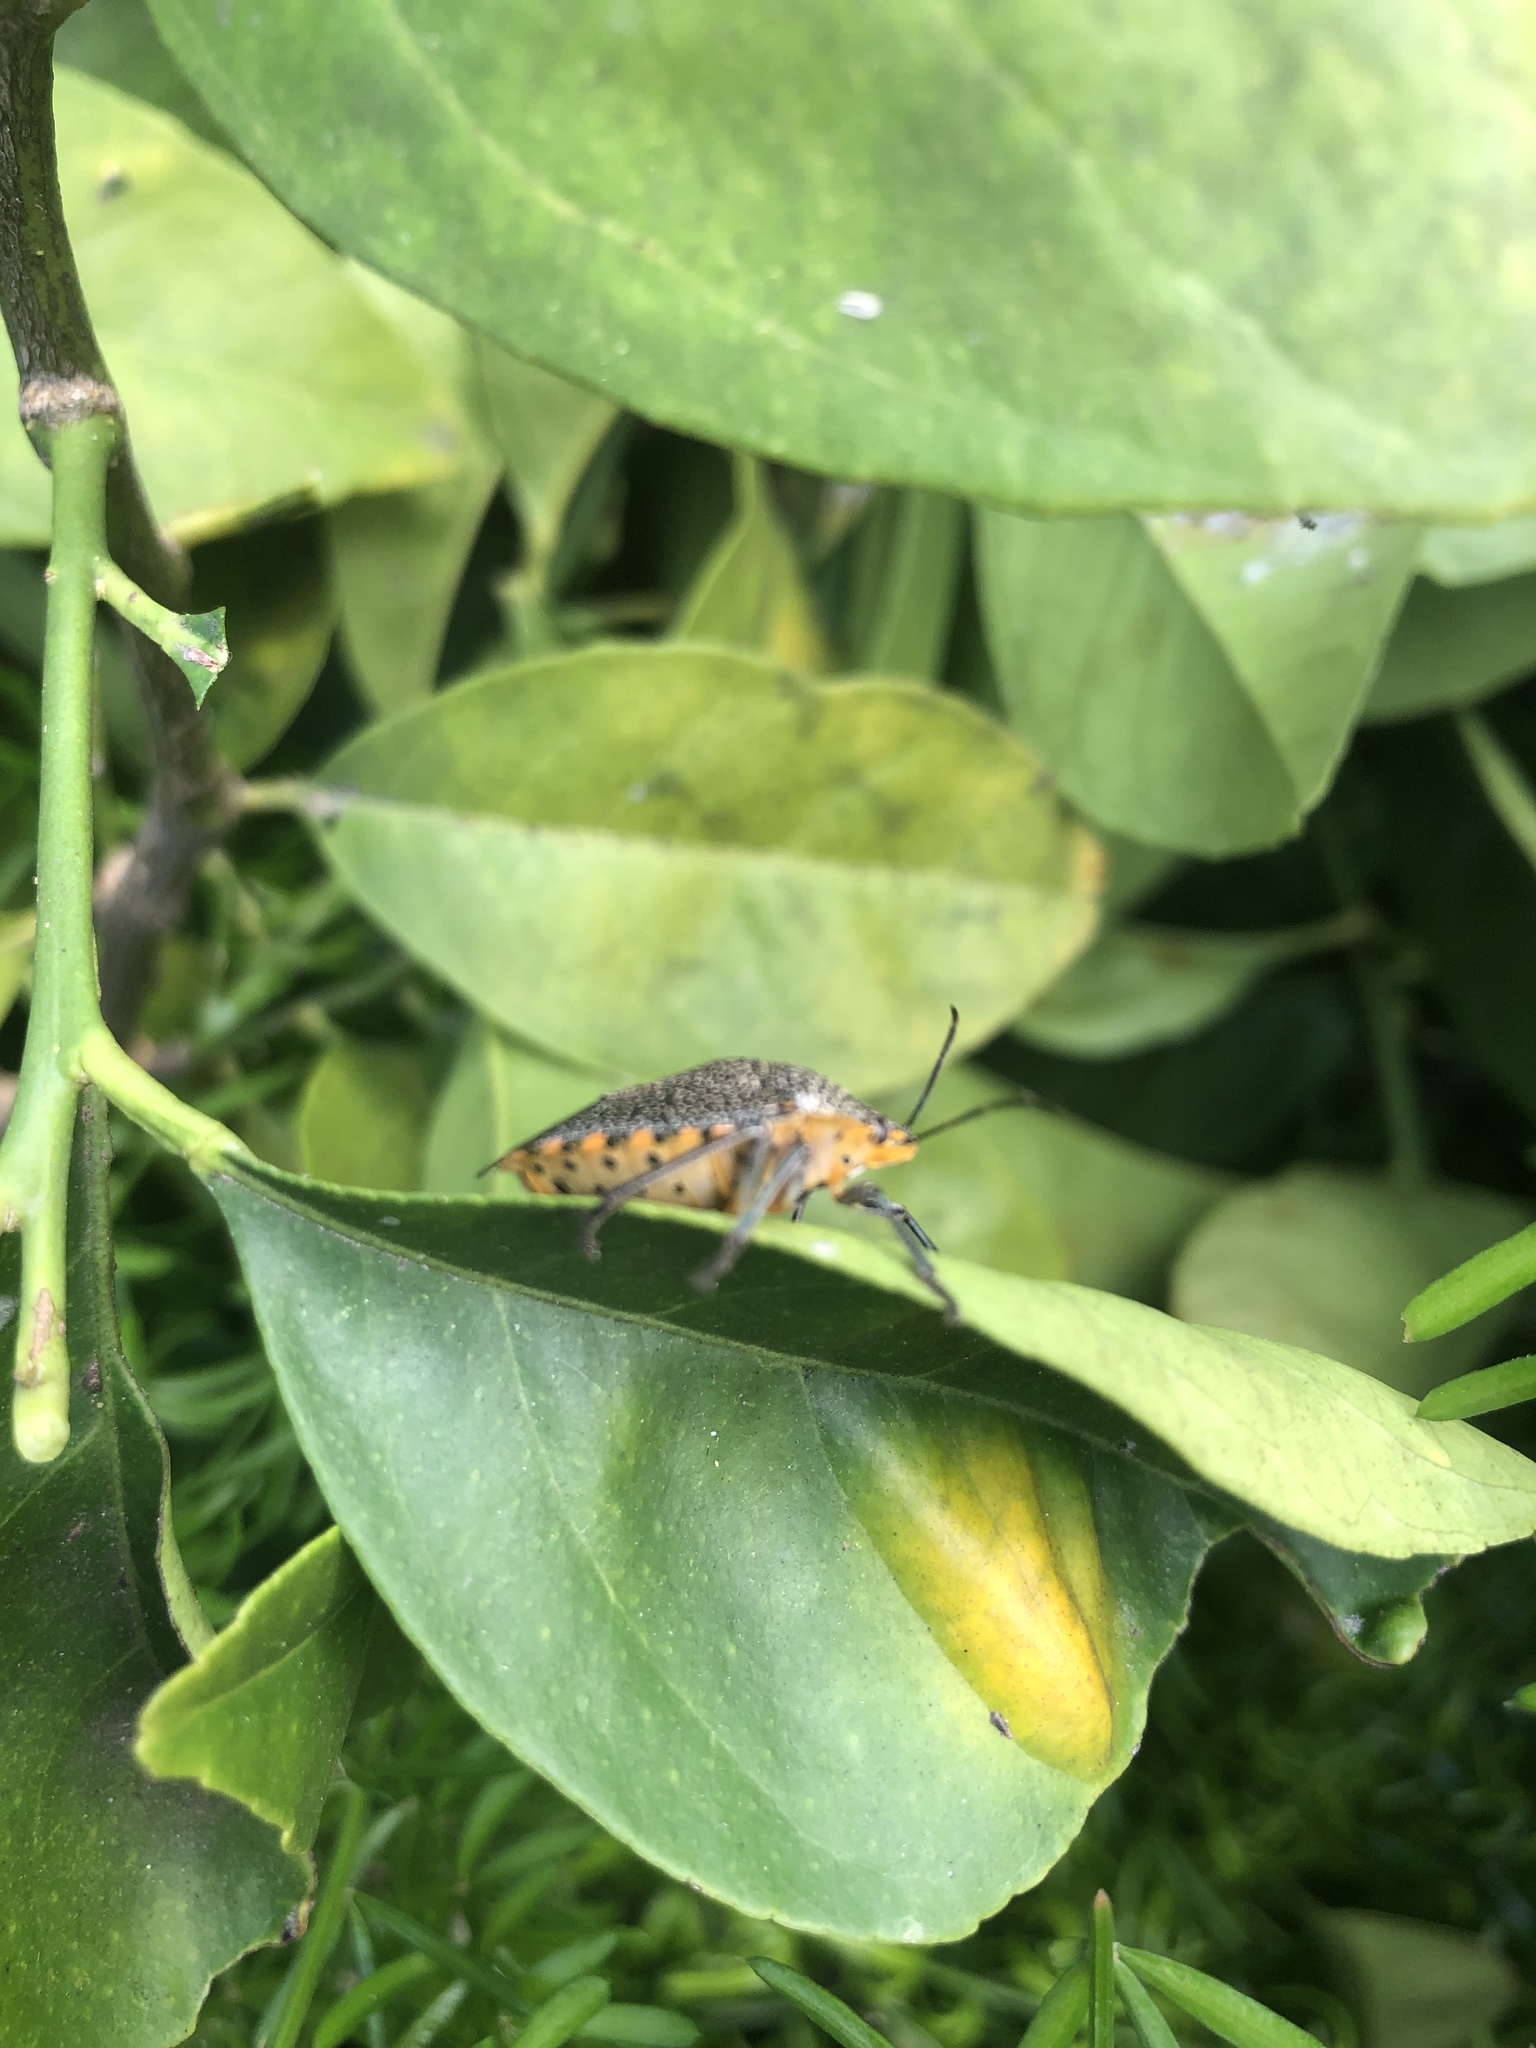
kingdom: Animalia
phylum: Arthropoda
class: Insecta
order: Hemiptera
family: Pentatomidae
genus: Pellaea
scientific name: Pellaea stictica
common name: Stink bug
